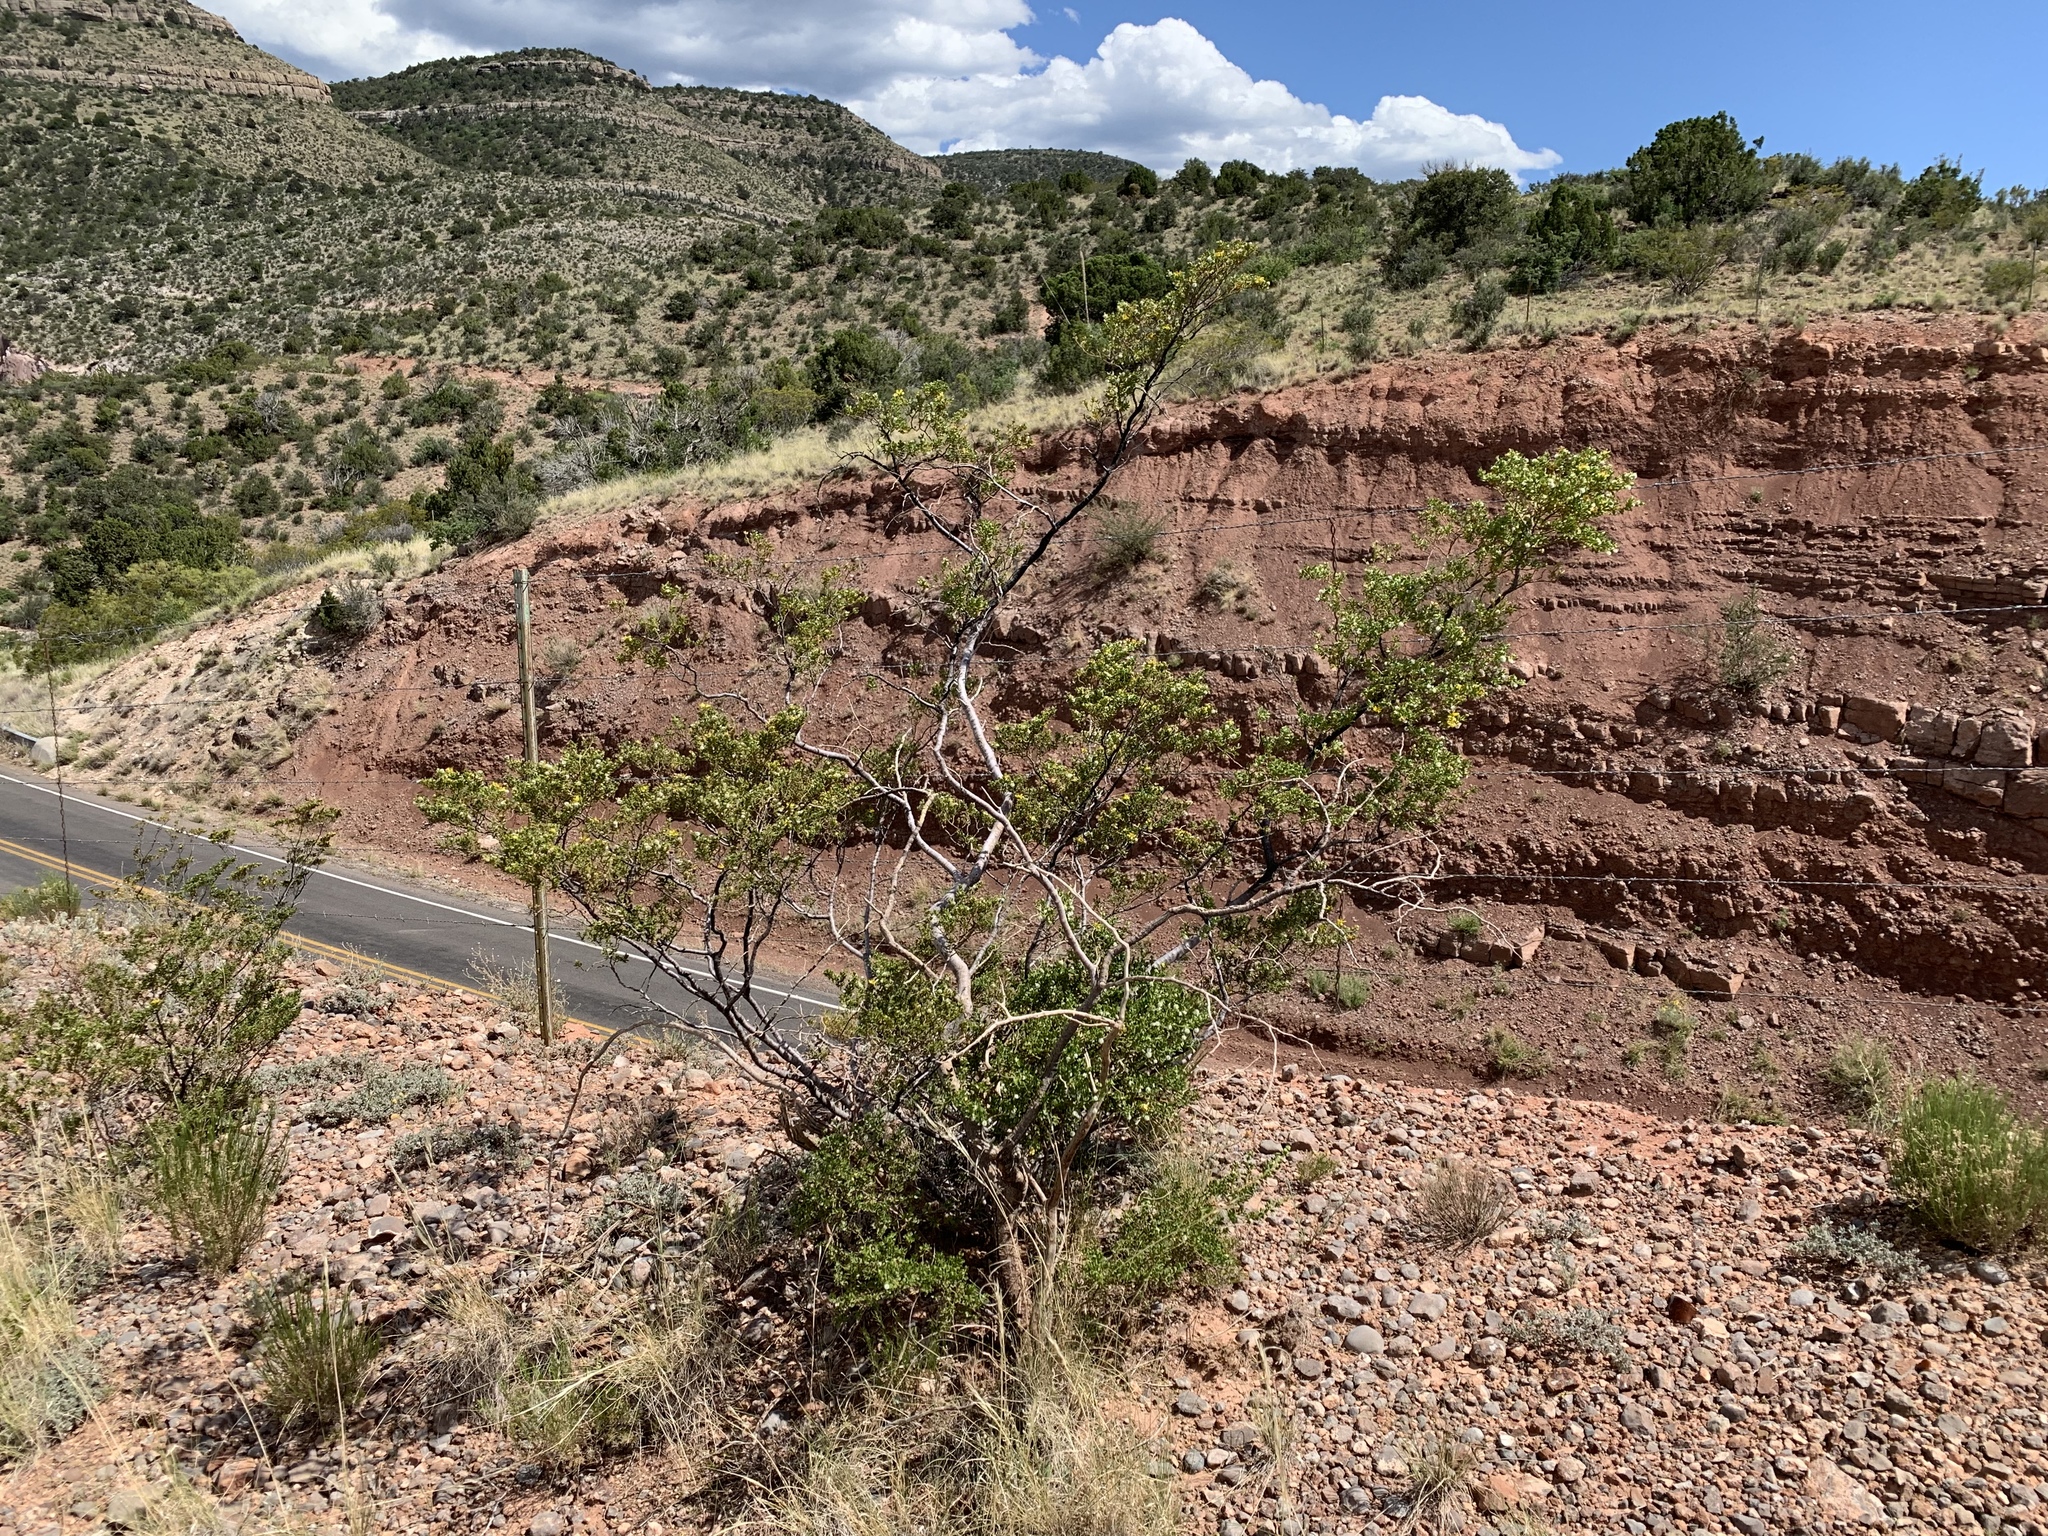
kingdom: Plantae
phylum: Tracheophyta
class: Magnoliopsida
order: Zygophyllales
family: Zygophyllaceae
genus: Larrea
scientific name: Larrea tridentata
